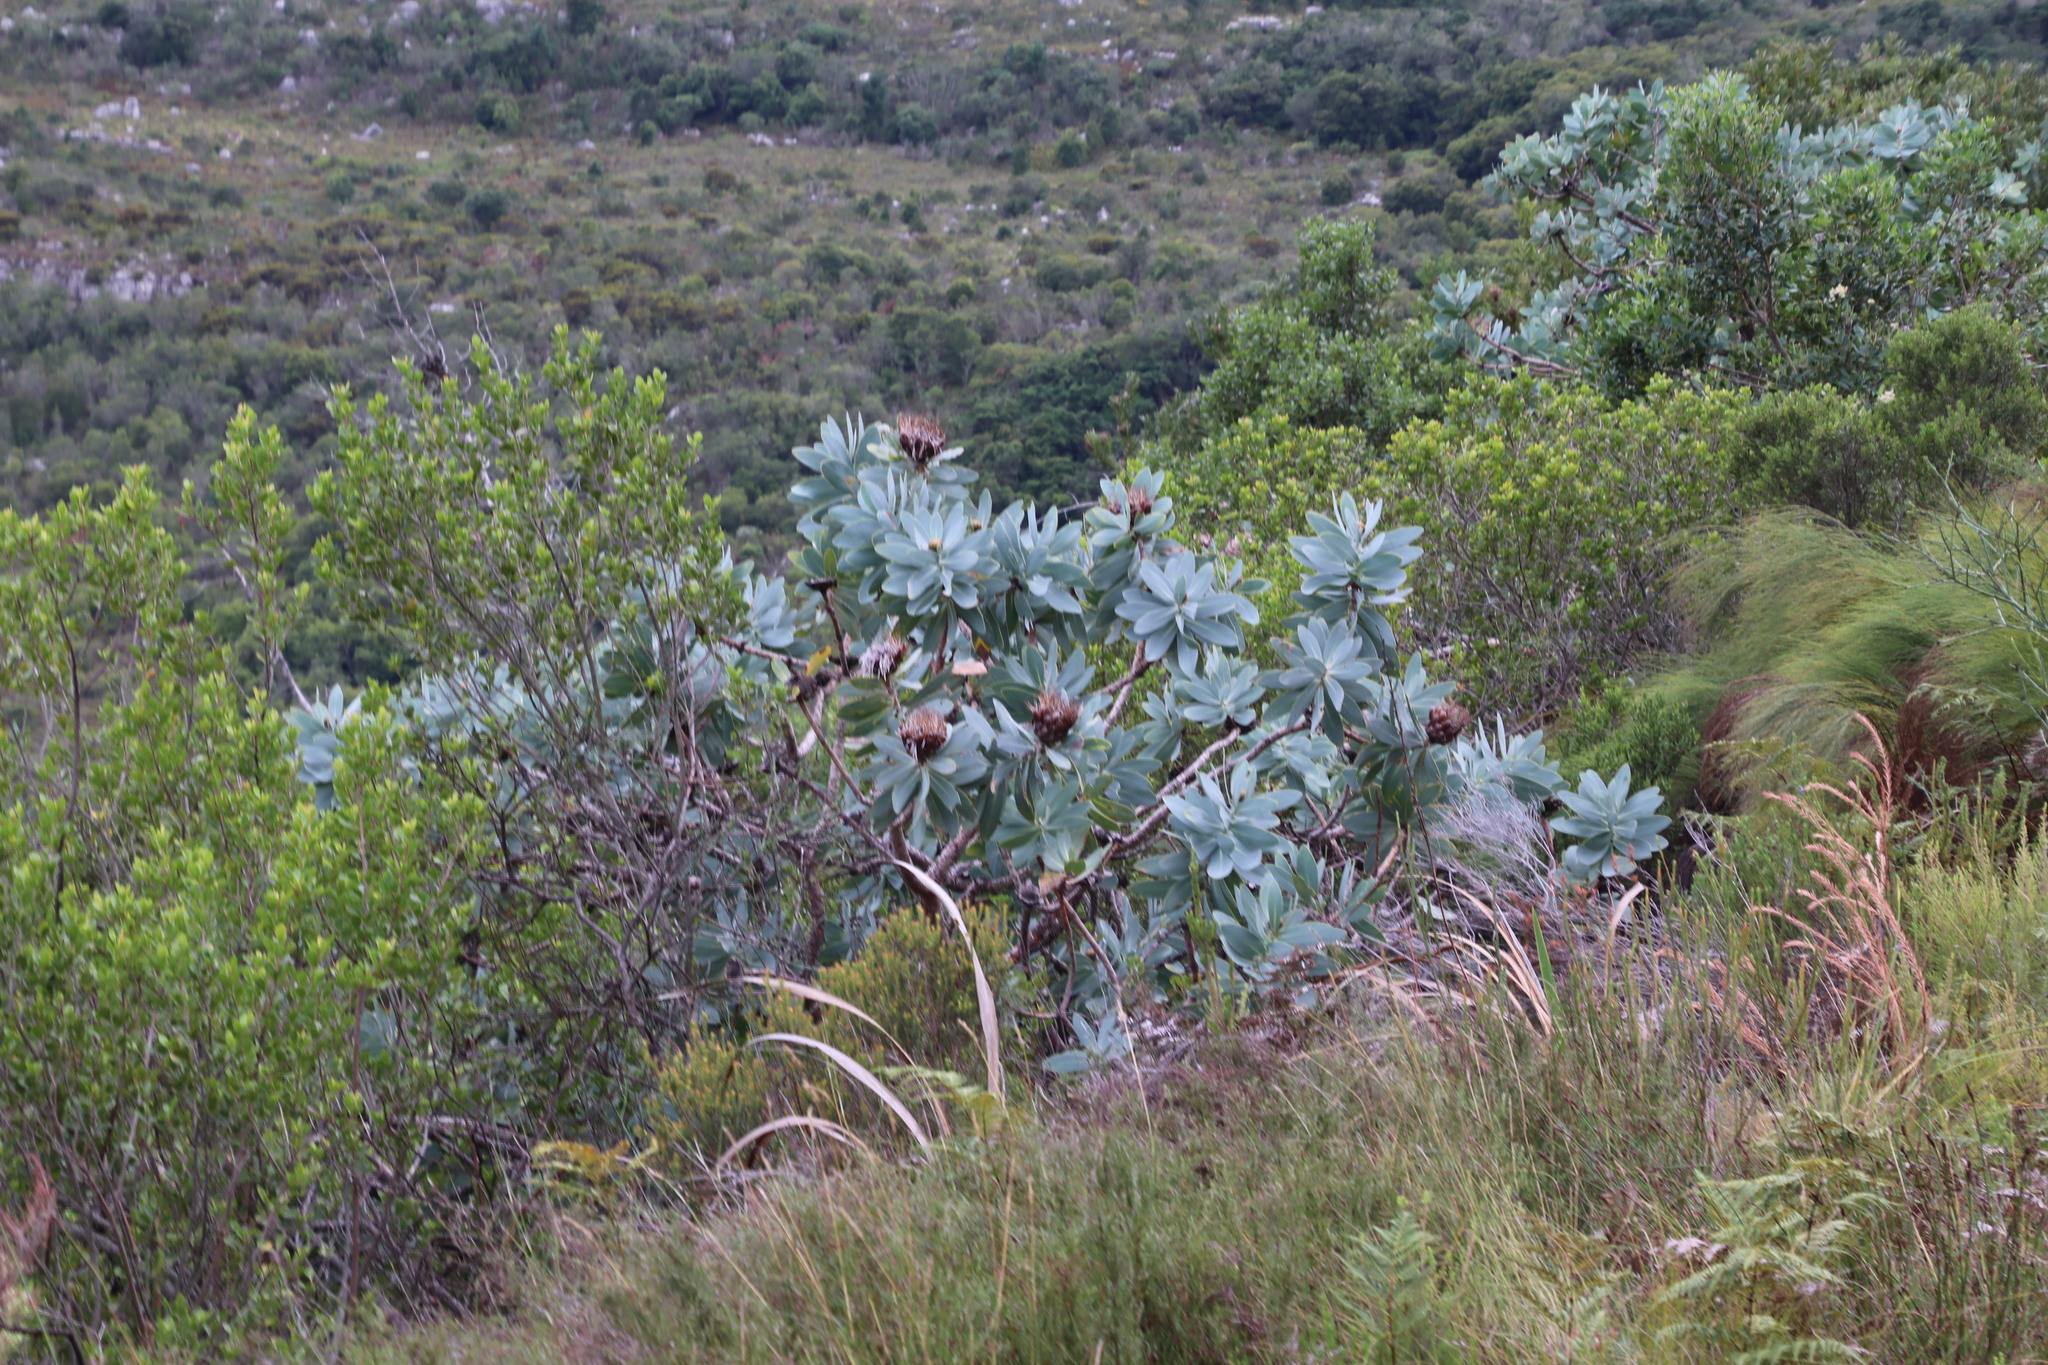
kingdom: Plantae
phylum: Tracheophyta
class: Magnoliopsida
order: Proteales
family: Proteaceae
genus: Protea
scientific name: Protea nitida
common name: Tree protea
